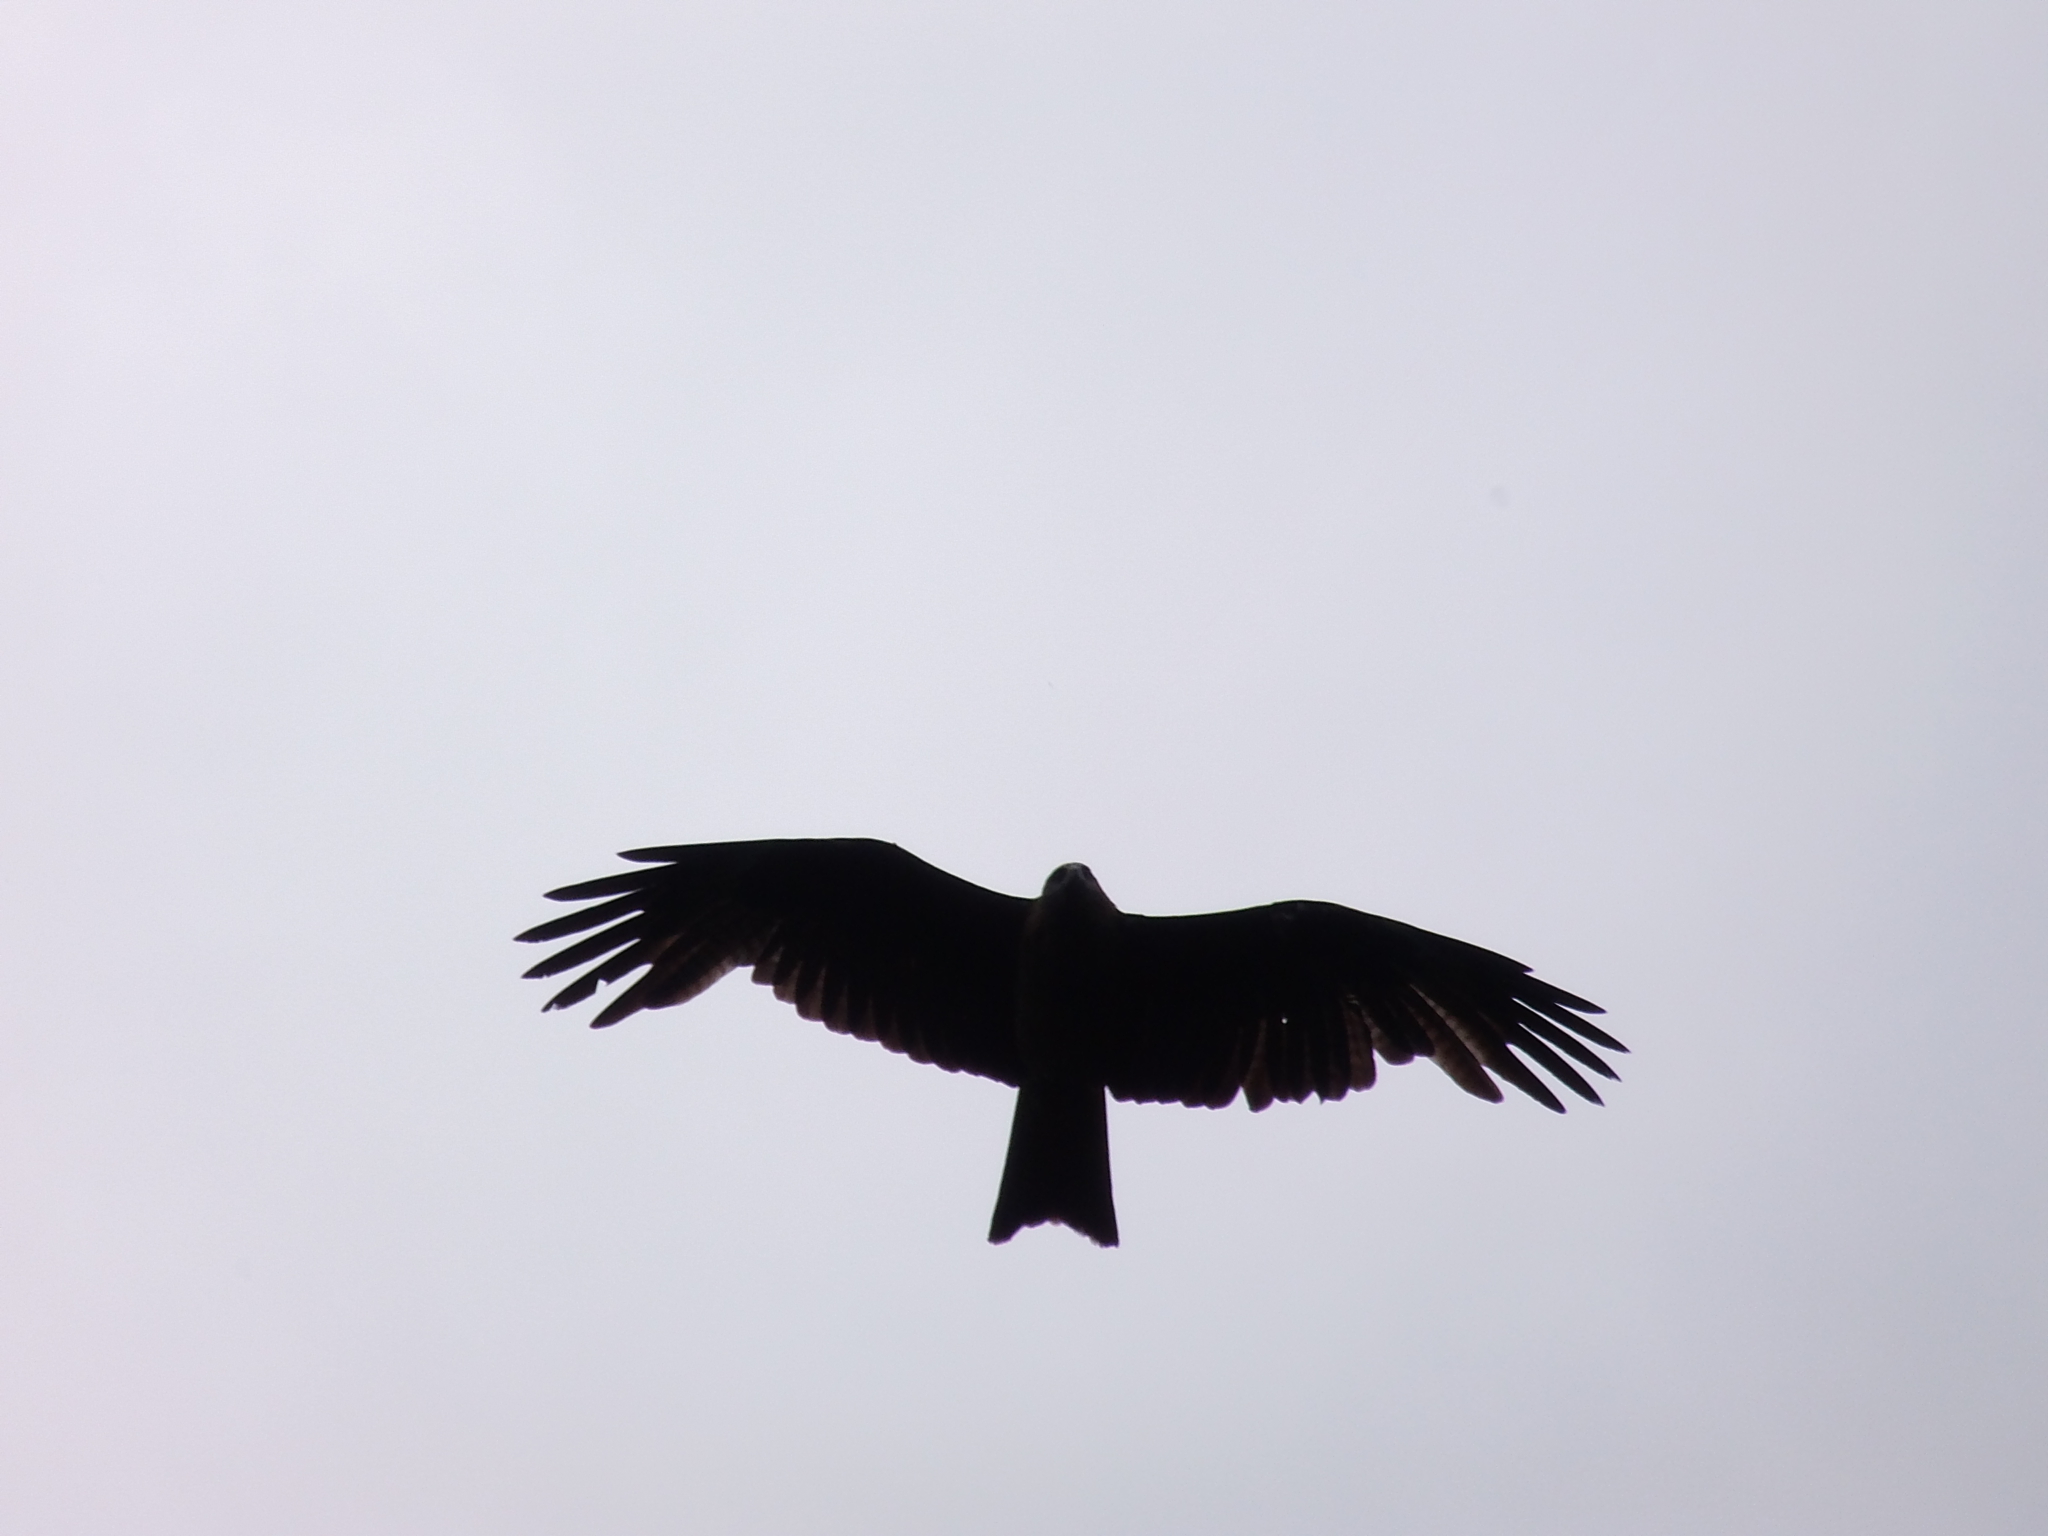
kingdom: Animalia
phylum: Chordata
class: Aves
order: Accipitriformes
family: Accipitridae
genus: Milvus
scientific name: Milvus migrans
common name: Black kite
